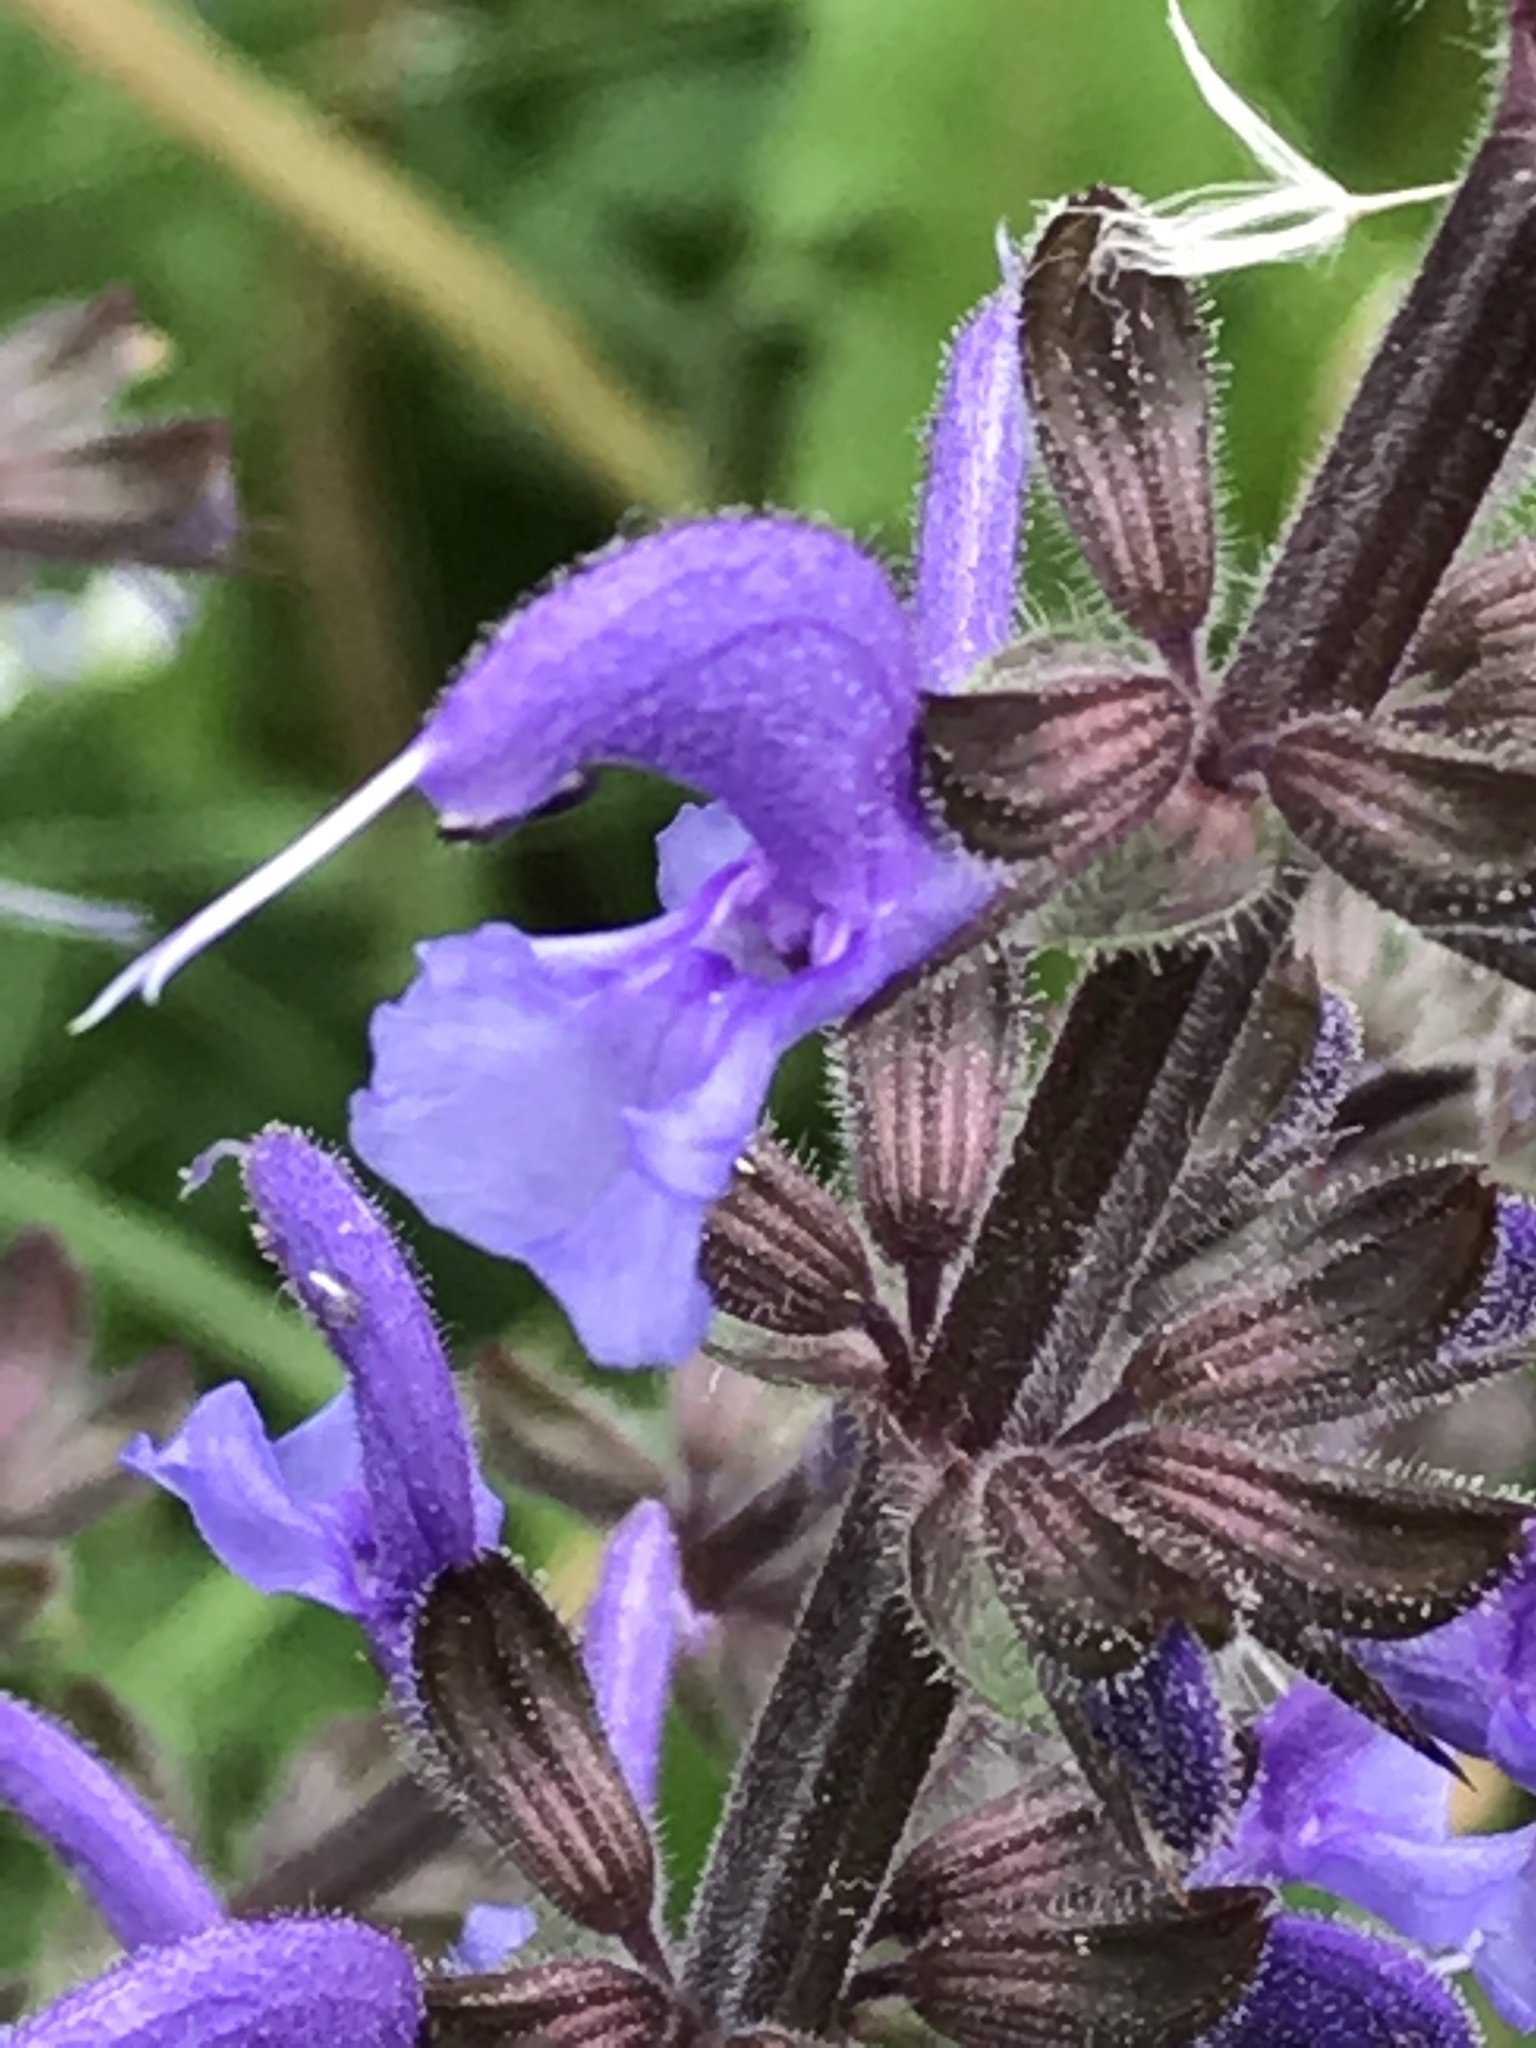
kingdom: Plantae
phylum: Tracheophyta
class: Magnoliopsida
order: Lamiales
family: Lamiaceae
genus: Salvia
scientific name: Salvia pratensis
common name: Meadow sage
